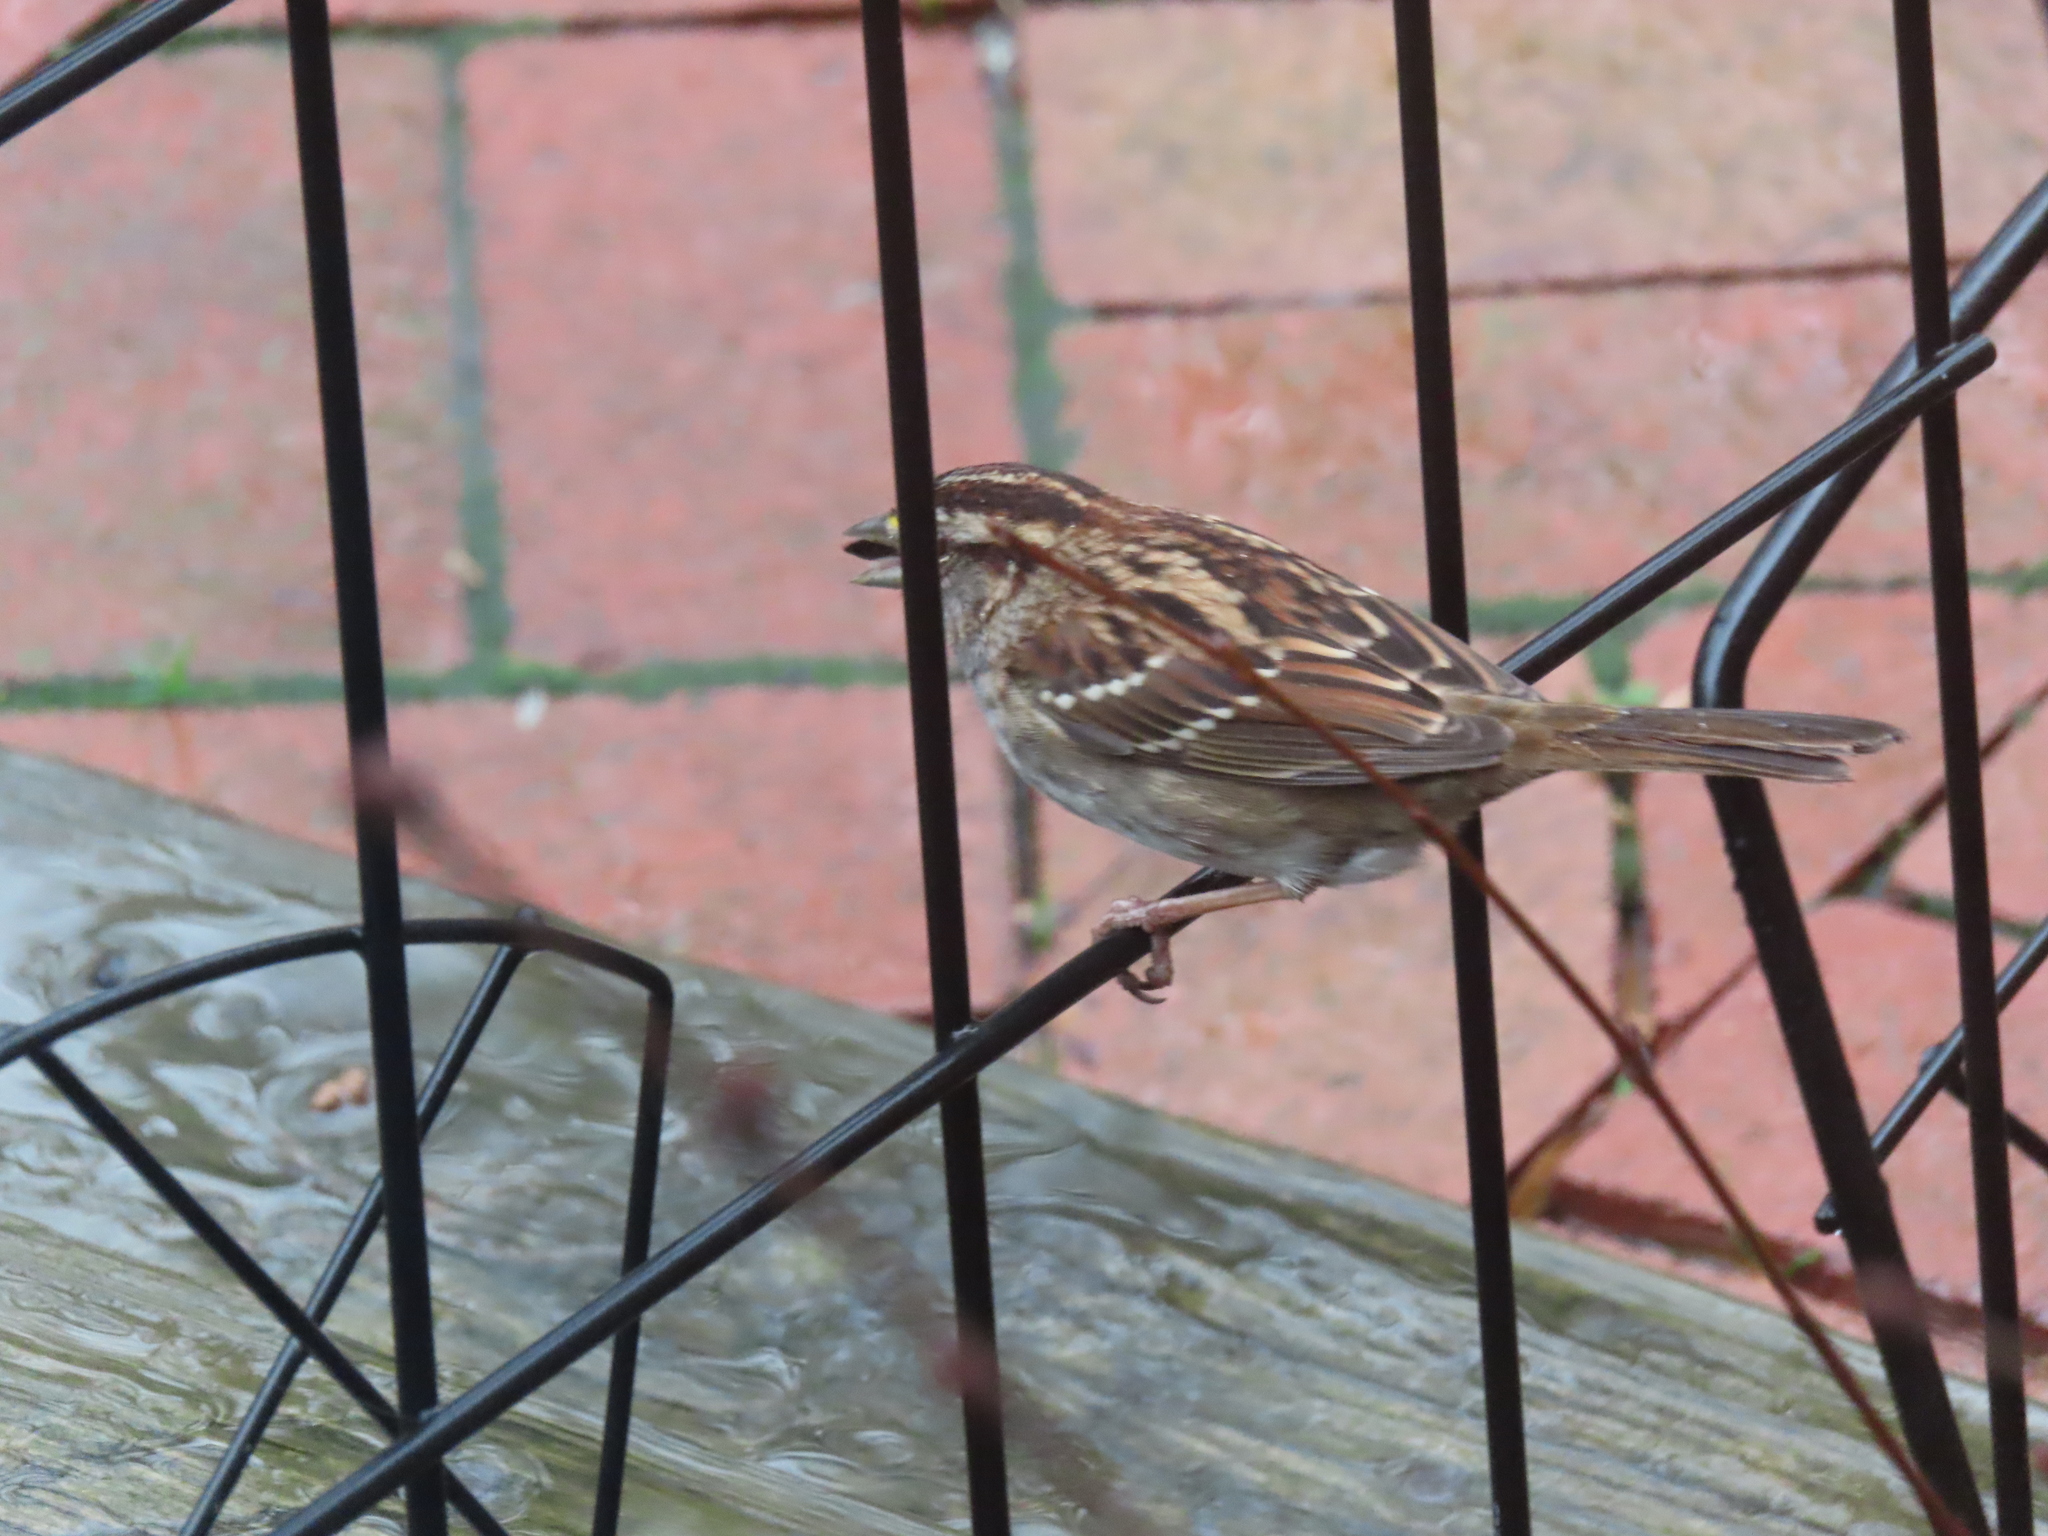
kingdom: Animalia
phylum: Chordata
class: Aves
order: Passeriformes
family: Passerellidae
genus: Zonotrichia
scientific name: Zonotrichia albicollis
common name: White-throated sparrow
